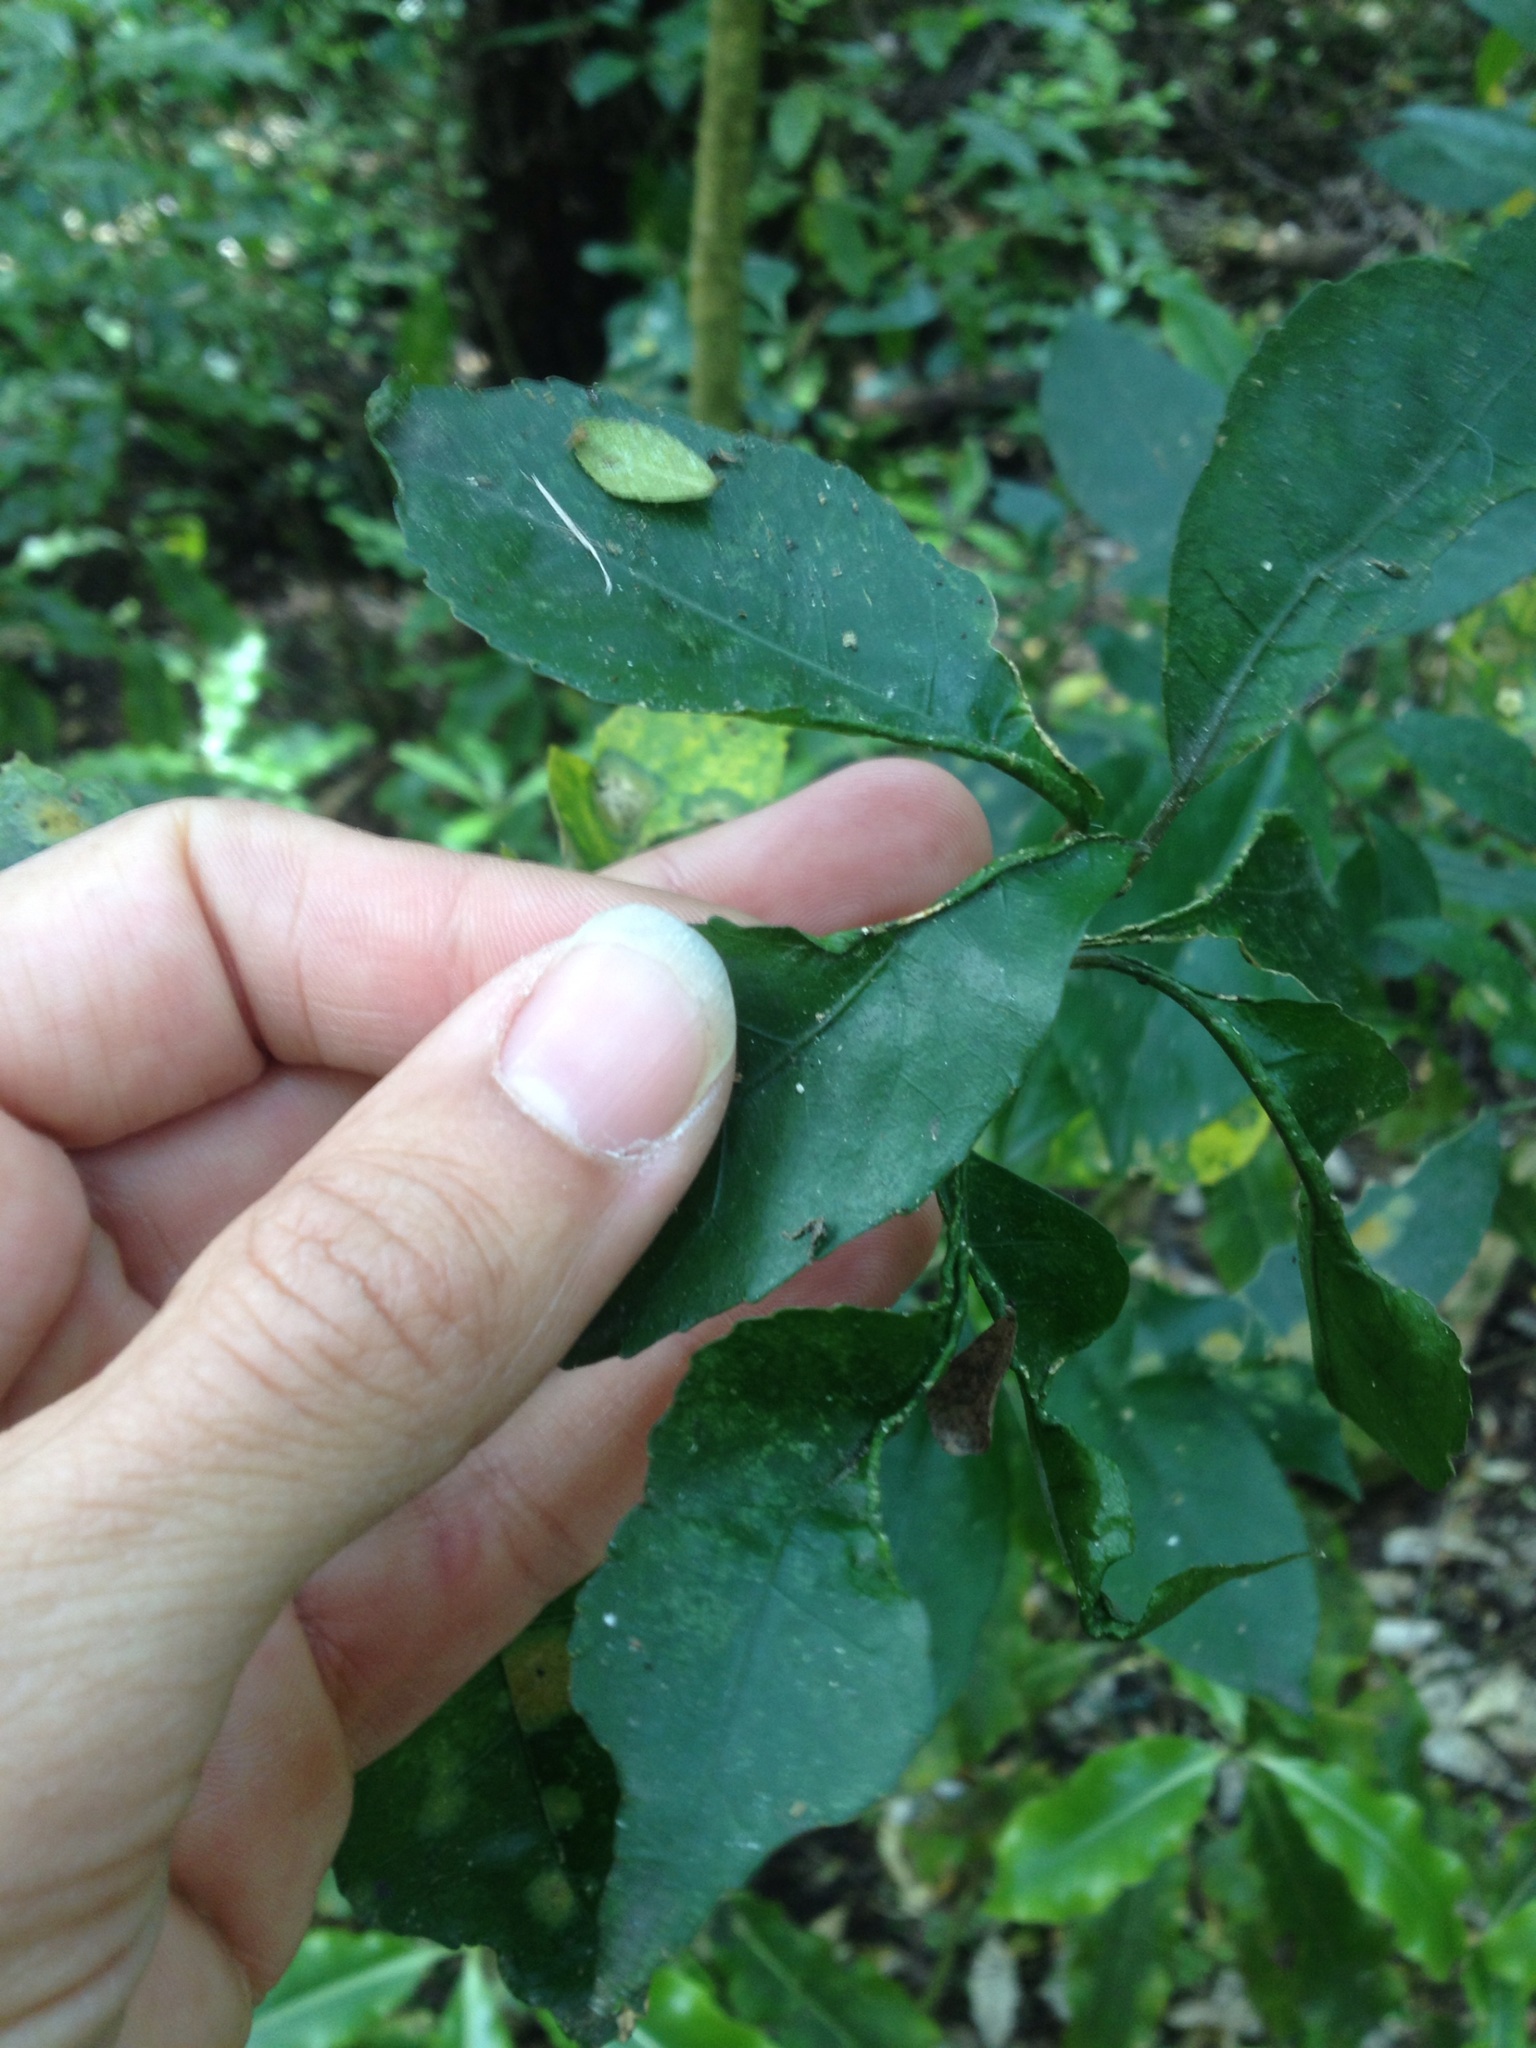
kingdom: Animalia
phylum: Arthropoda
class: Arachnida
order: Trombidiformes
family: Eriophyidae
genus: Aceria
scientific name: Aceria
